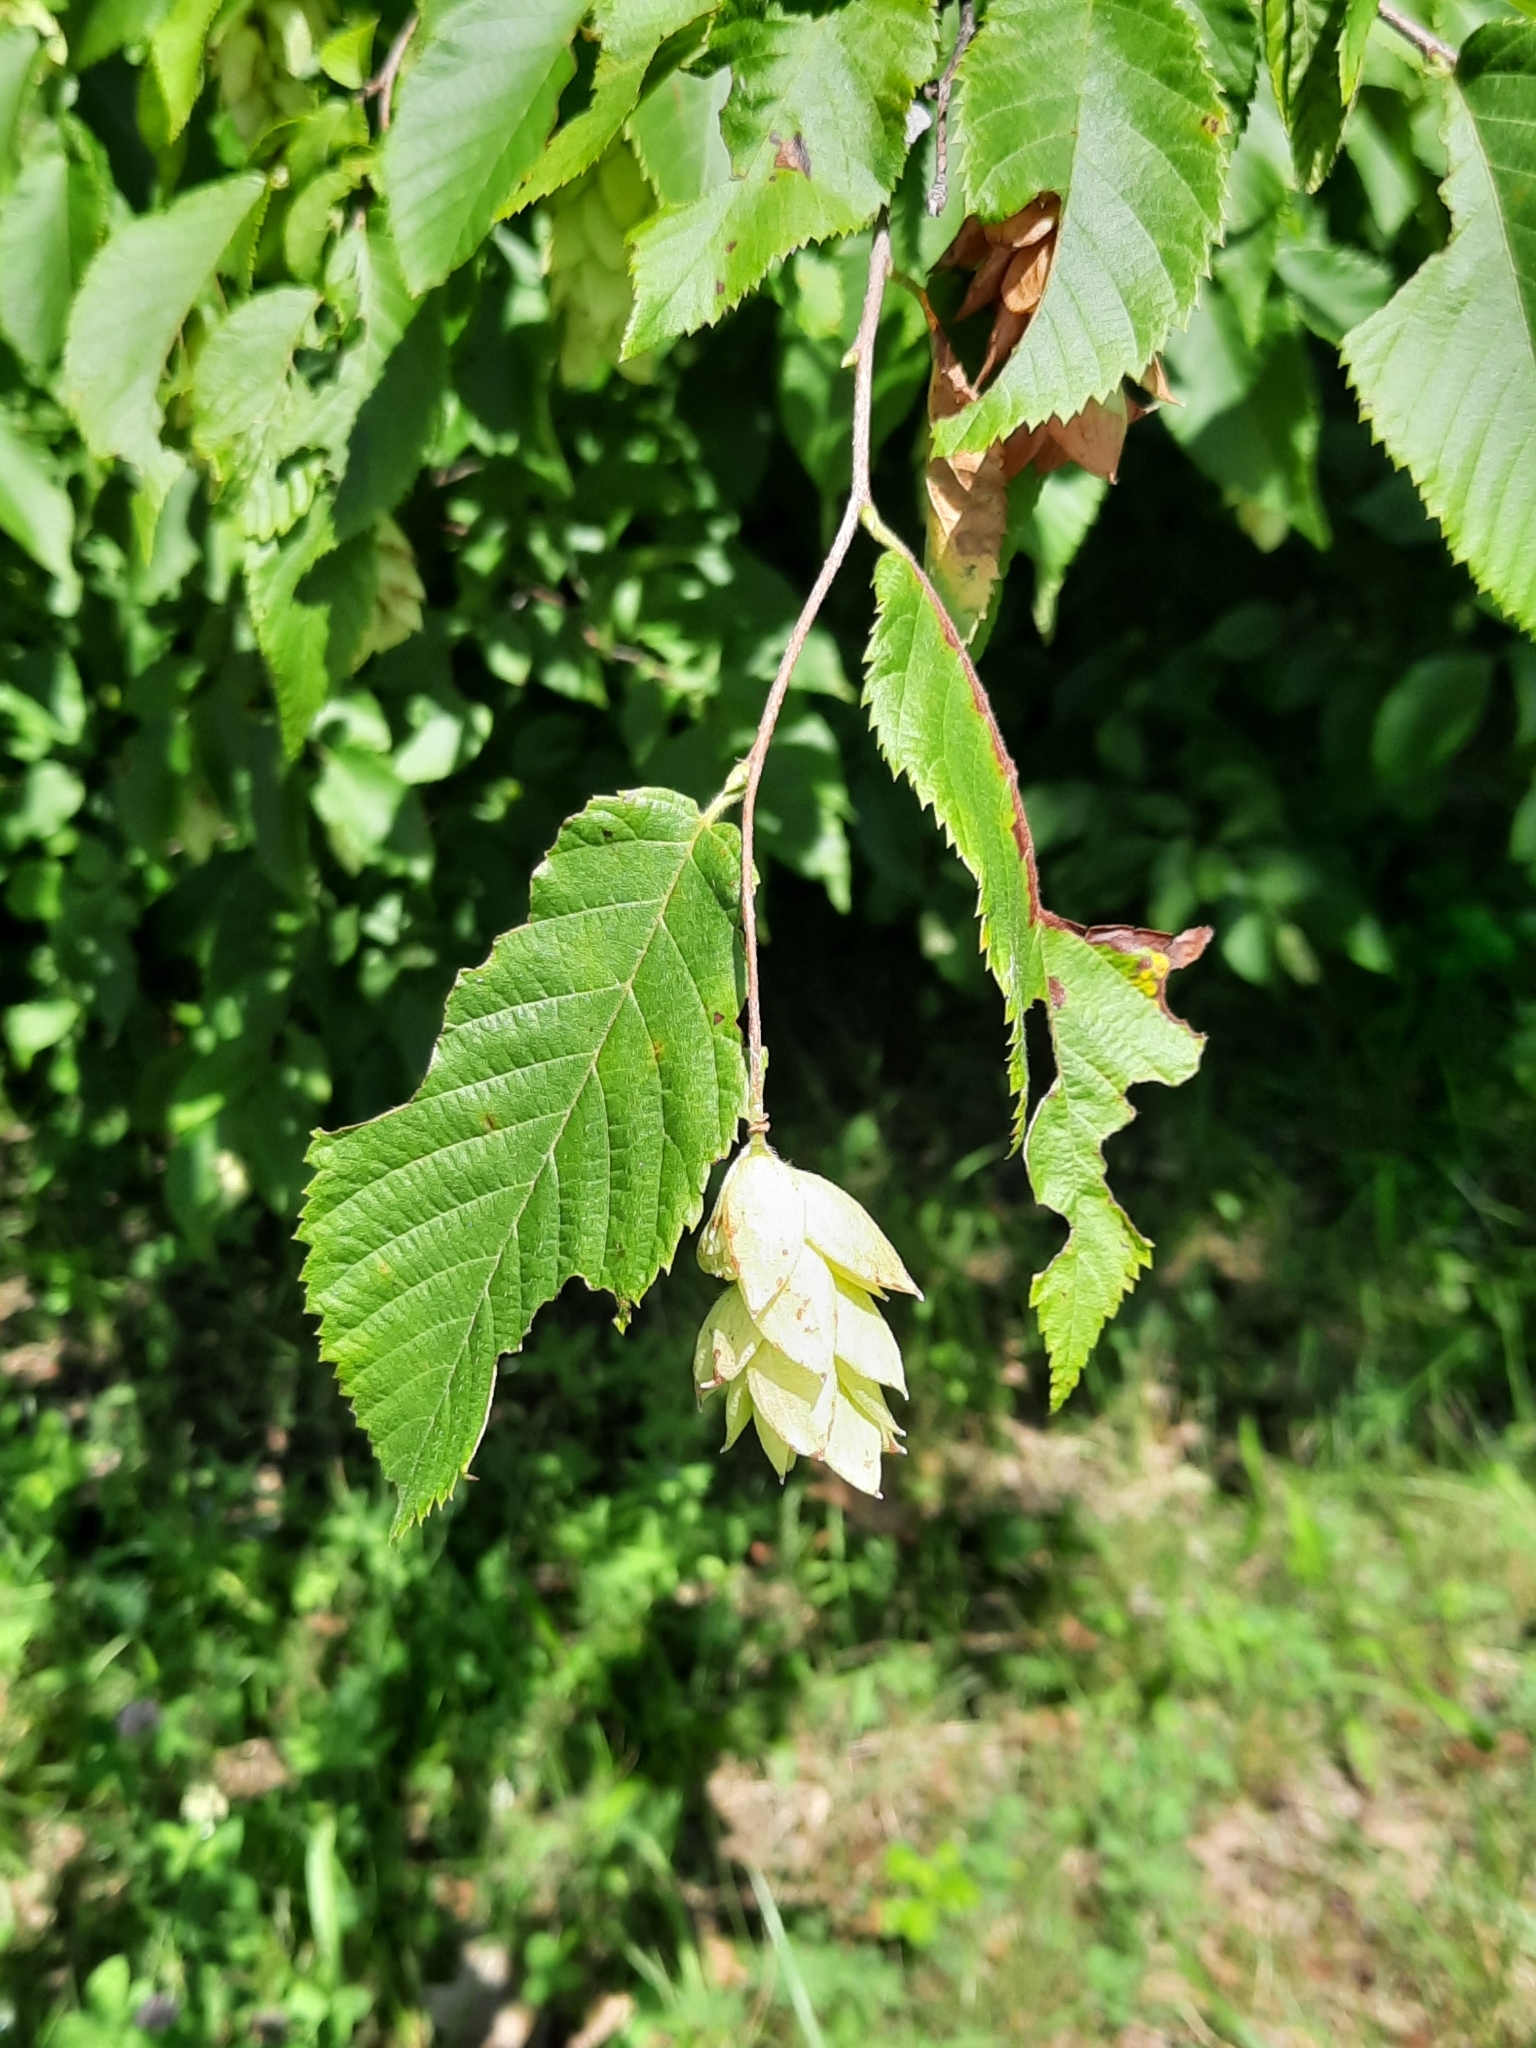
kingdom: Plantae
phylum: Tracheophyta
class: Magnoliopsida
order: Fagales
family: Betulaceae
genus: Ostrya
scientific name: Ostrya virginiana
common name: Ironwood
